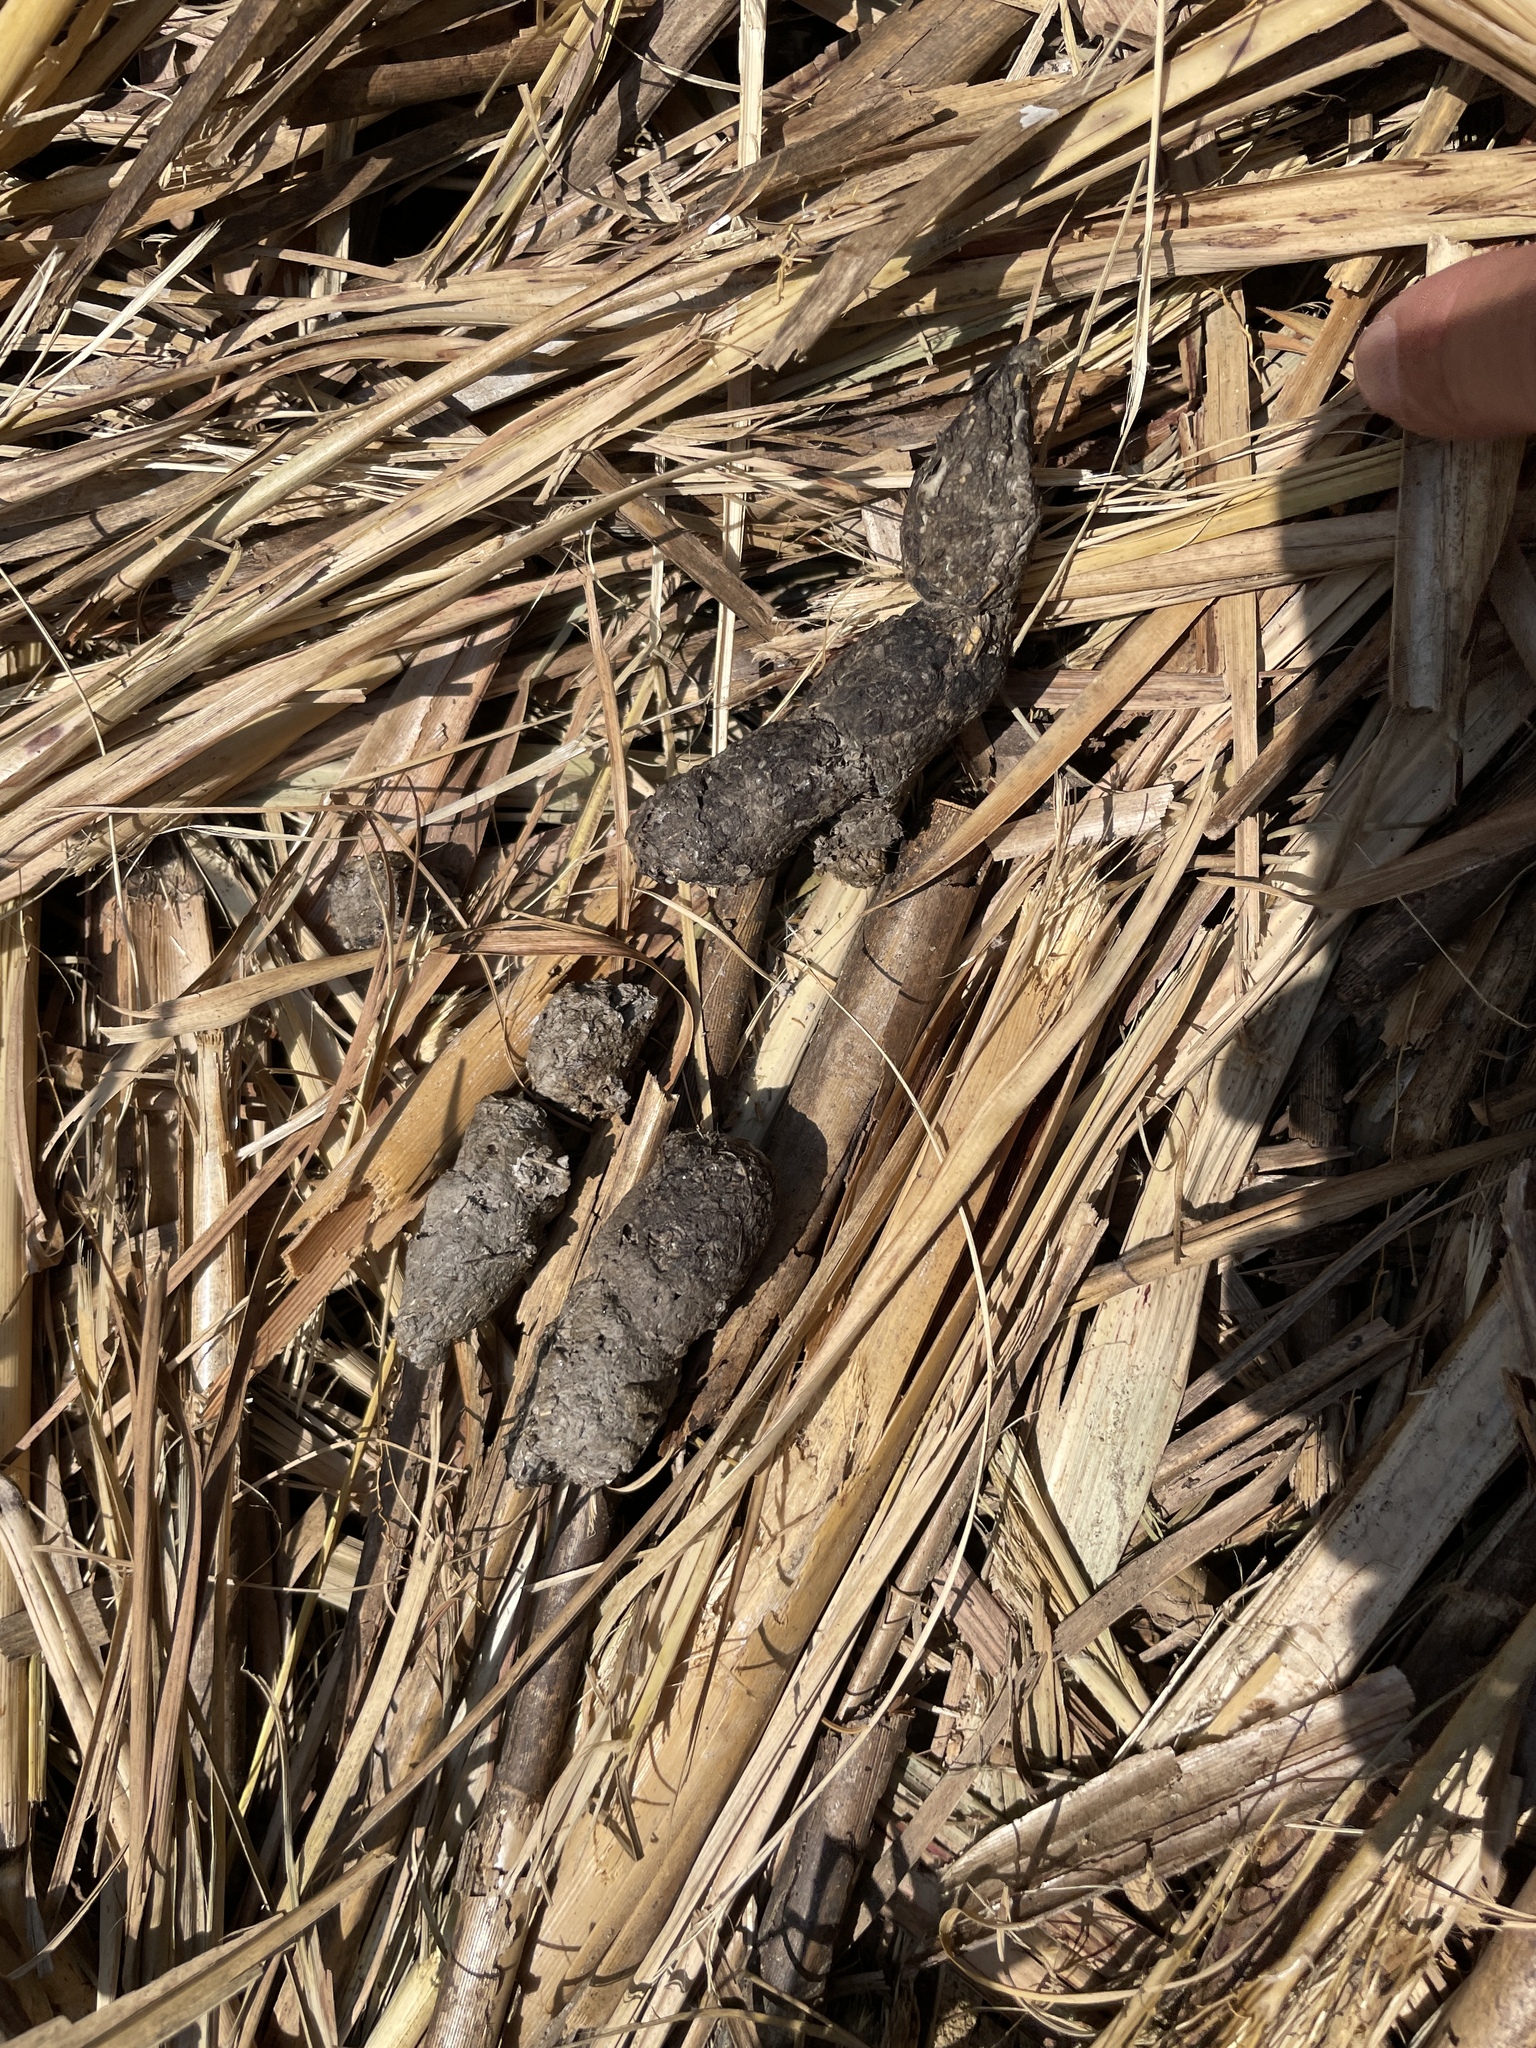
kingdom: Animalia
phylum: Chordata
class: Mammalia
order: Carnivora
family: Felidae
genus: Prionailurus
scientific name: Prionailurus bengalensis
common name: Leopard cat
